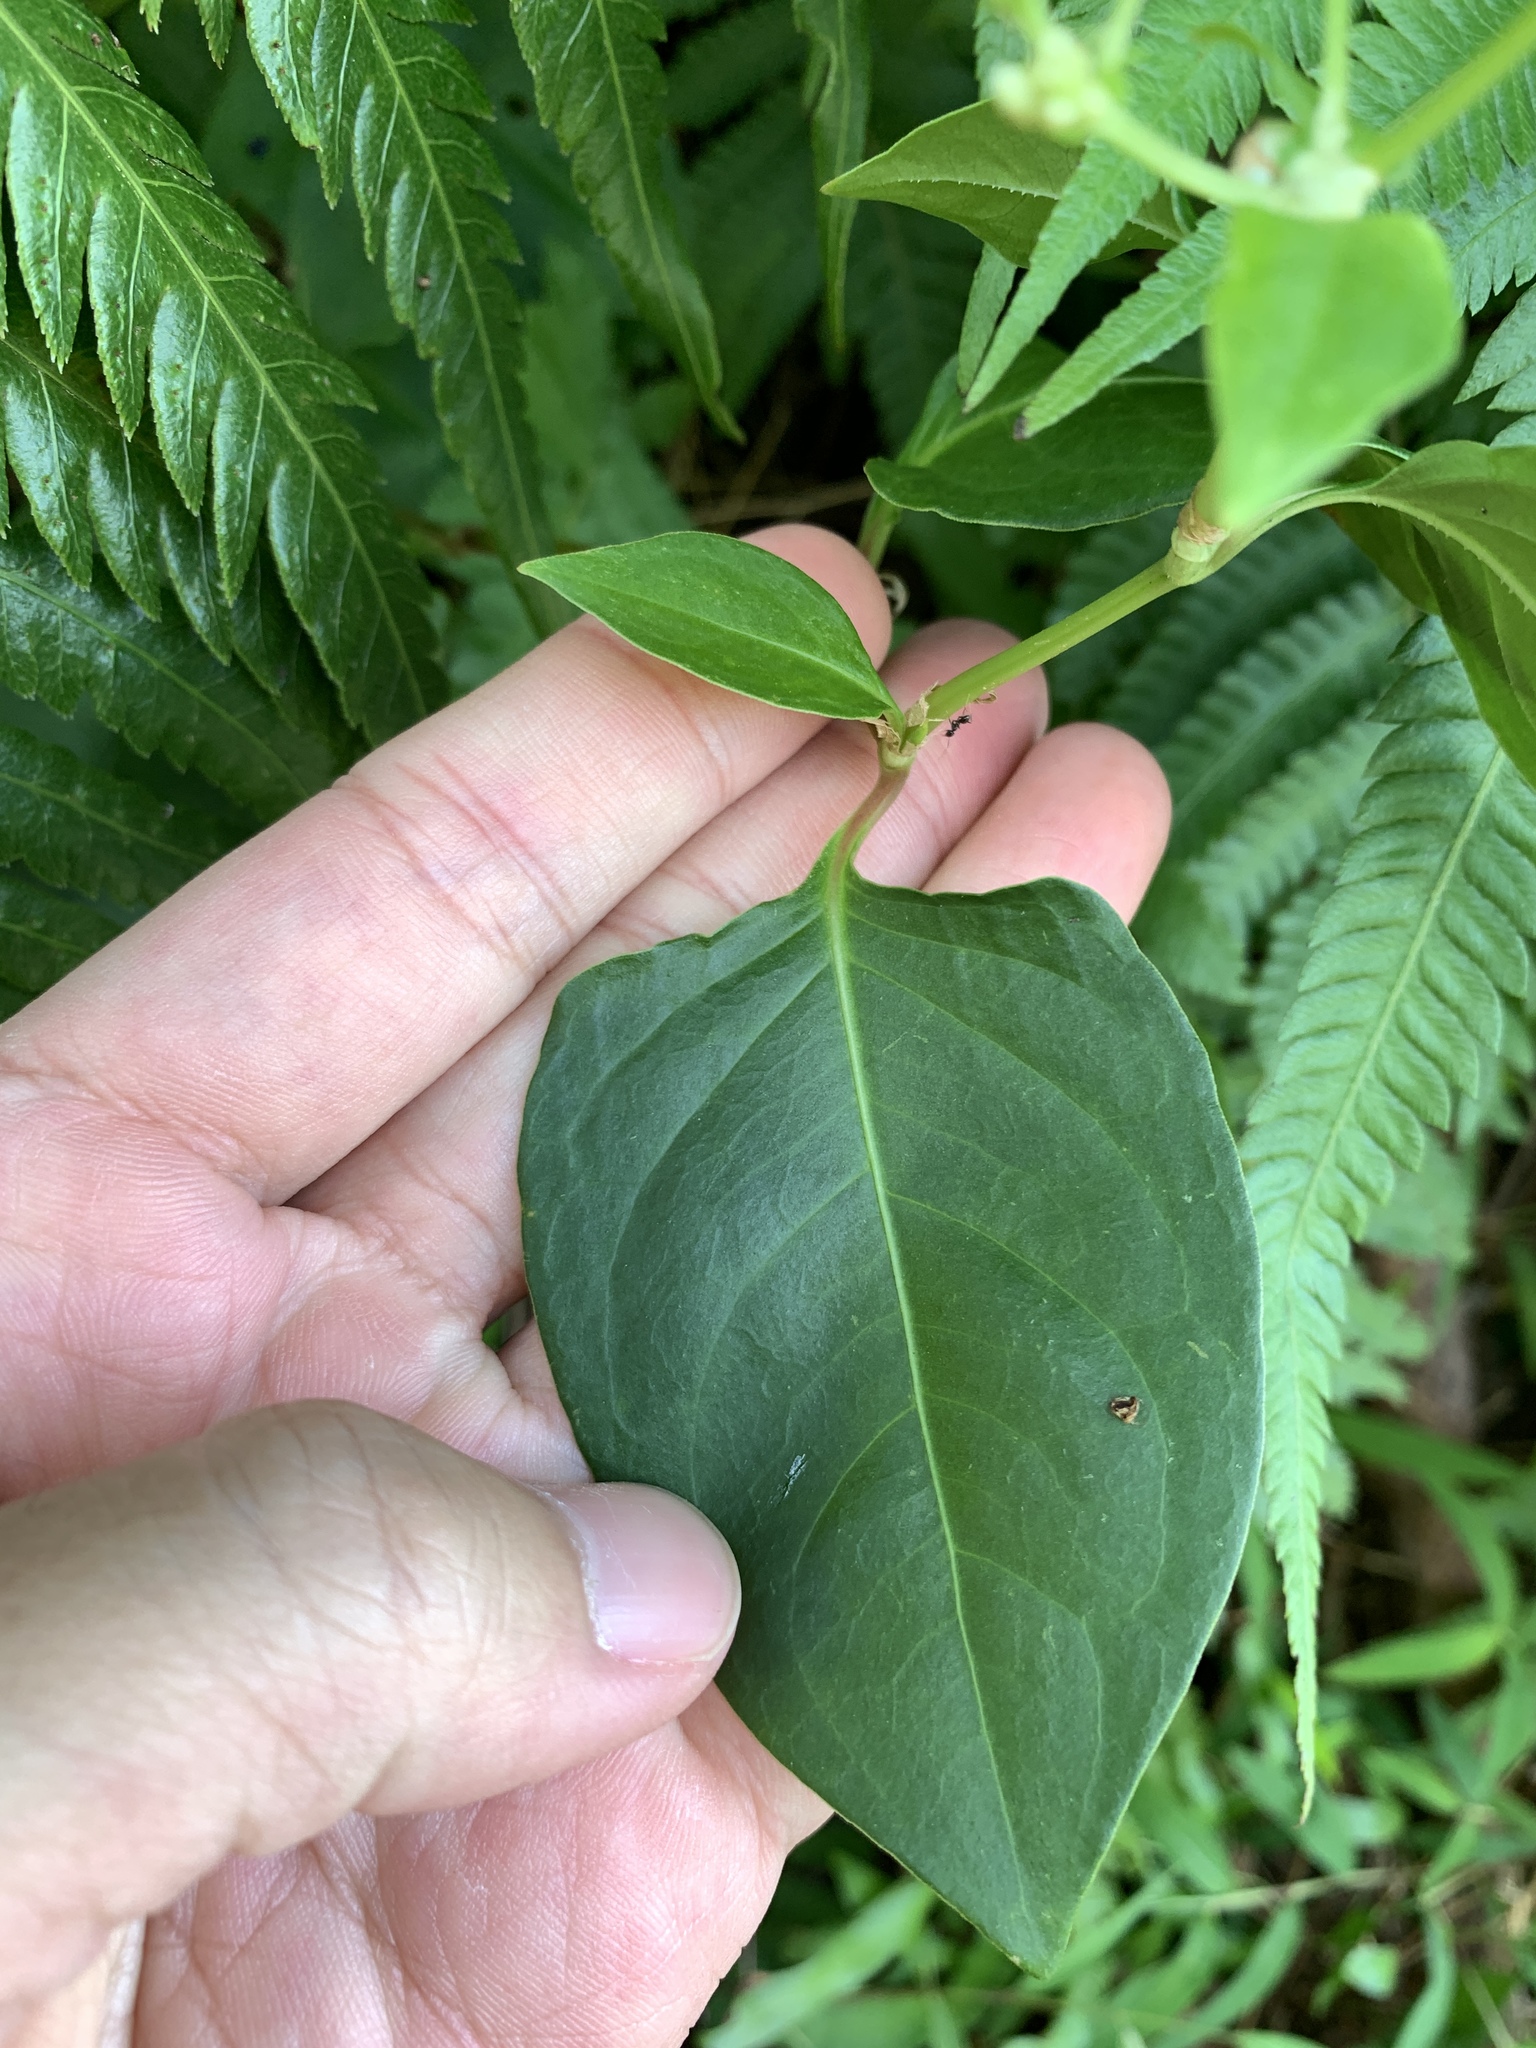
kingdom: Plantae
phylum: Tracheophyta
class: Magnoliopsida
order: Caryophyllales
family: Polygonaceae
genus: Persicaria
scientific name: Persicaria chinensis
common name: Chinese knotweed
